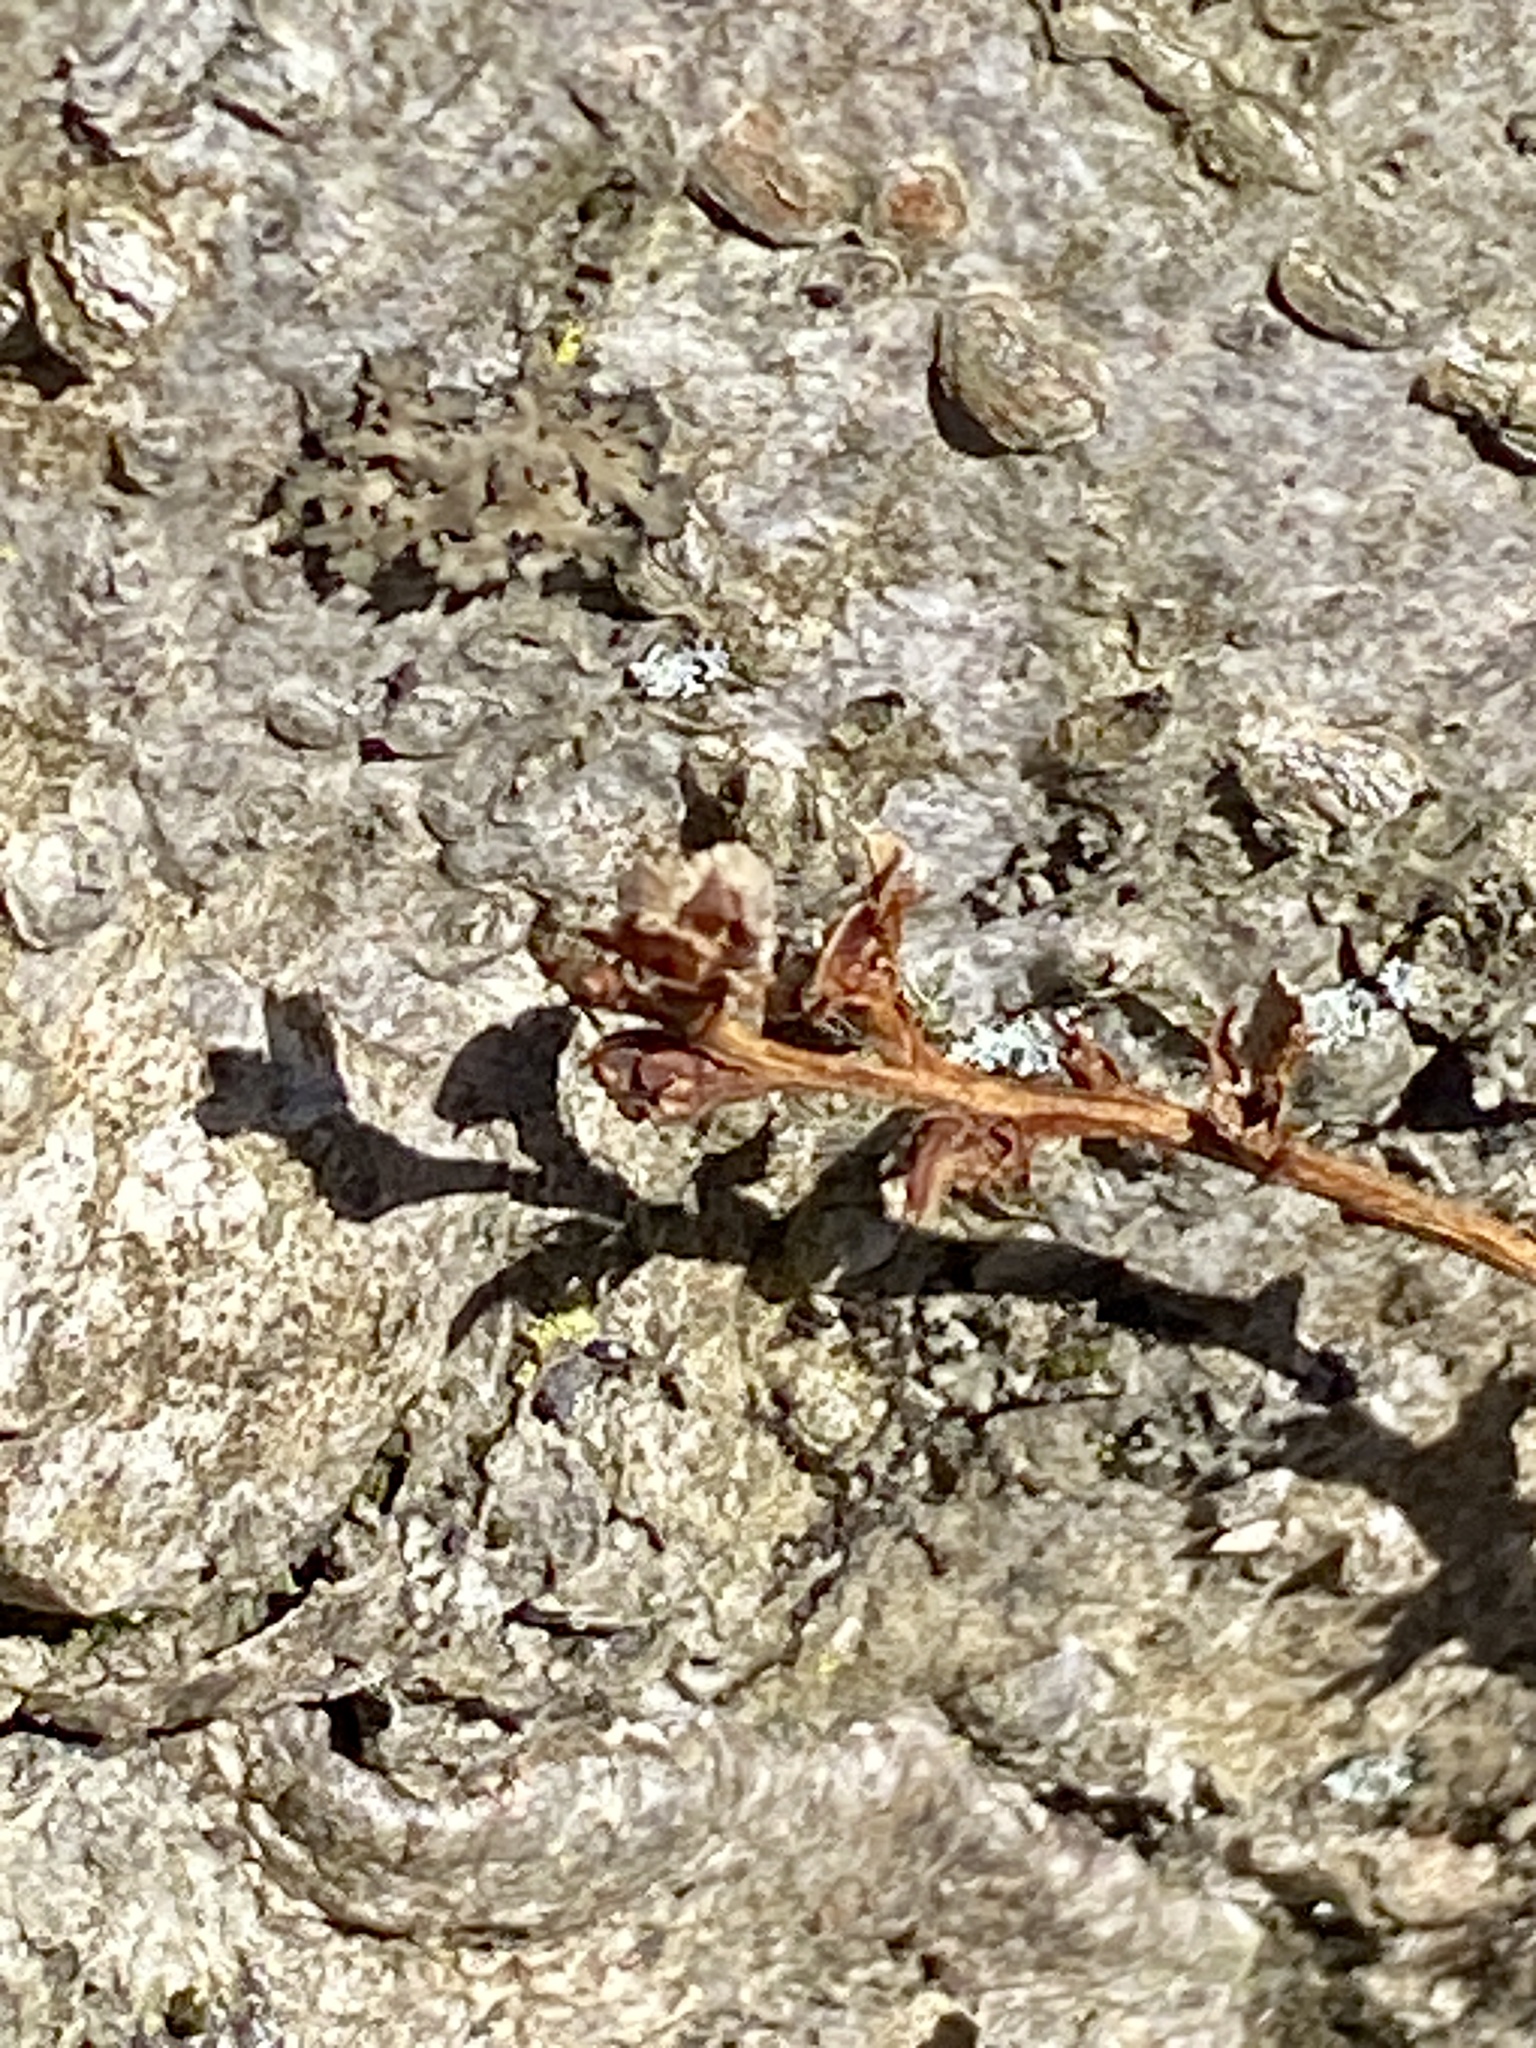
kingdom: Plantae
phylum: Tracheophyta
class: Magnoliopsida
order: Lamiales
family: Orobanchaceae
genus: Epifagus
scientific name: Epifagus virginiana
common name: Beechdrops
